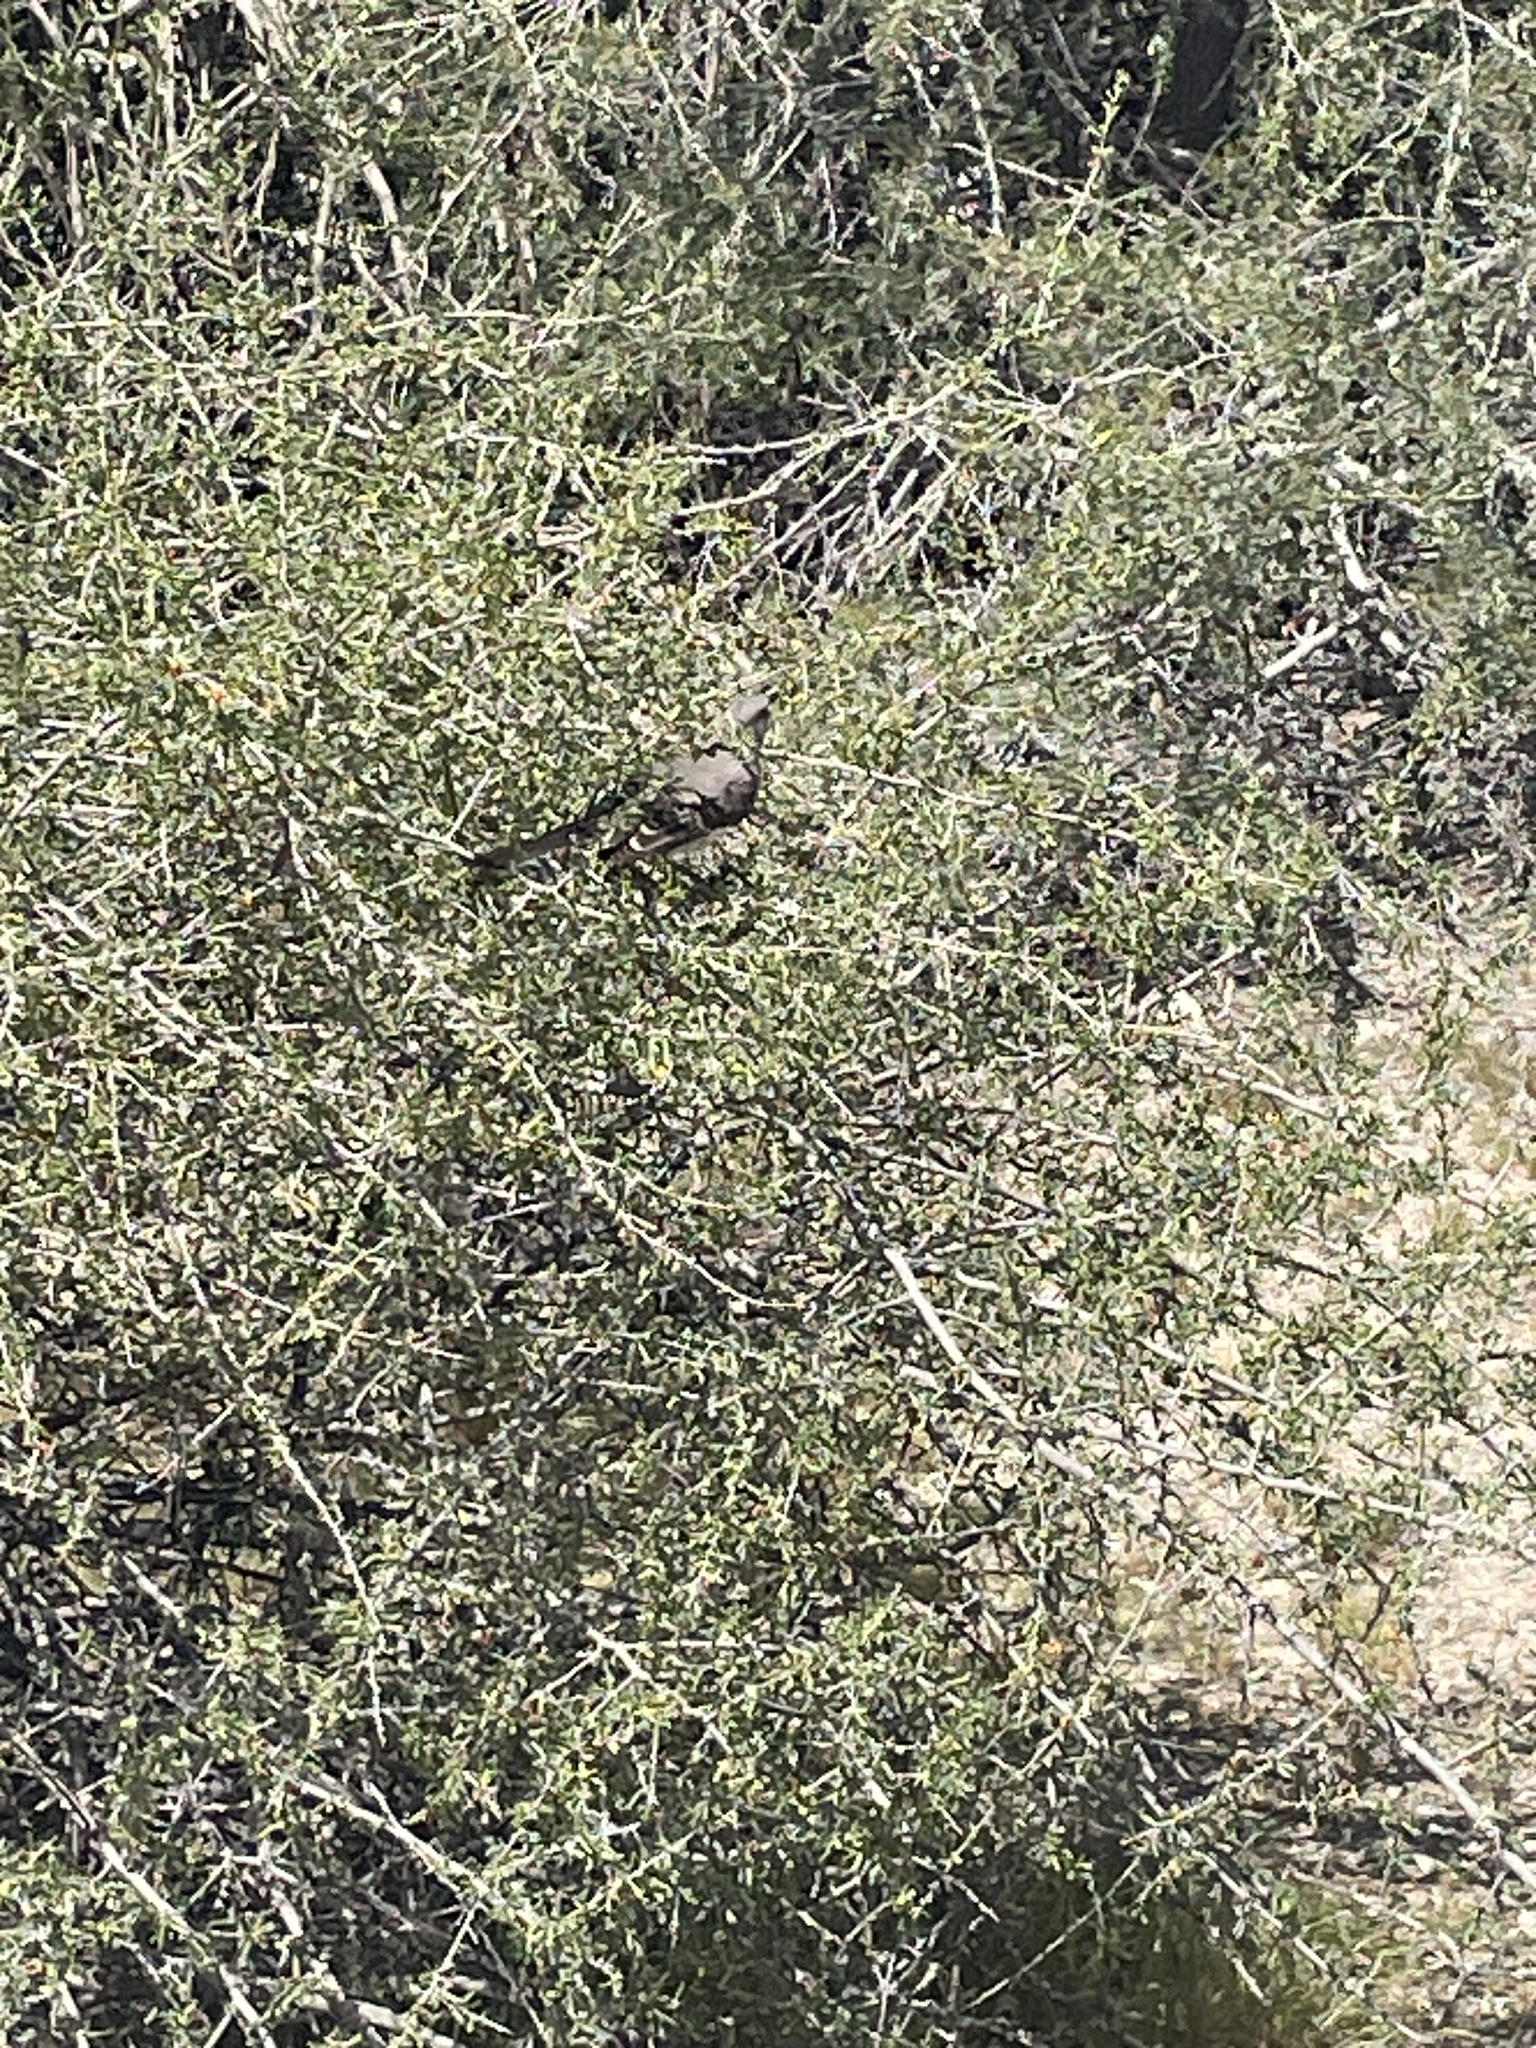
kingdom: Animalia
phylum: Chordata
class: Aves
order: Passeriformes
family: Mimidae
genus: Mimus
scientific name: Mimus polyglottos
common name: Northern mockingbird
